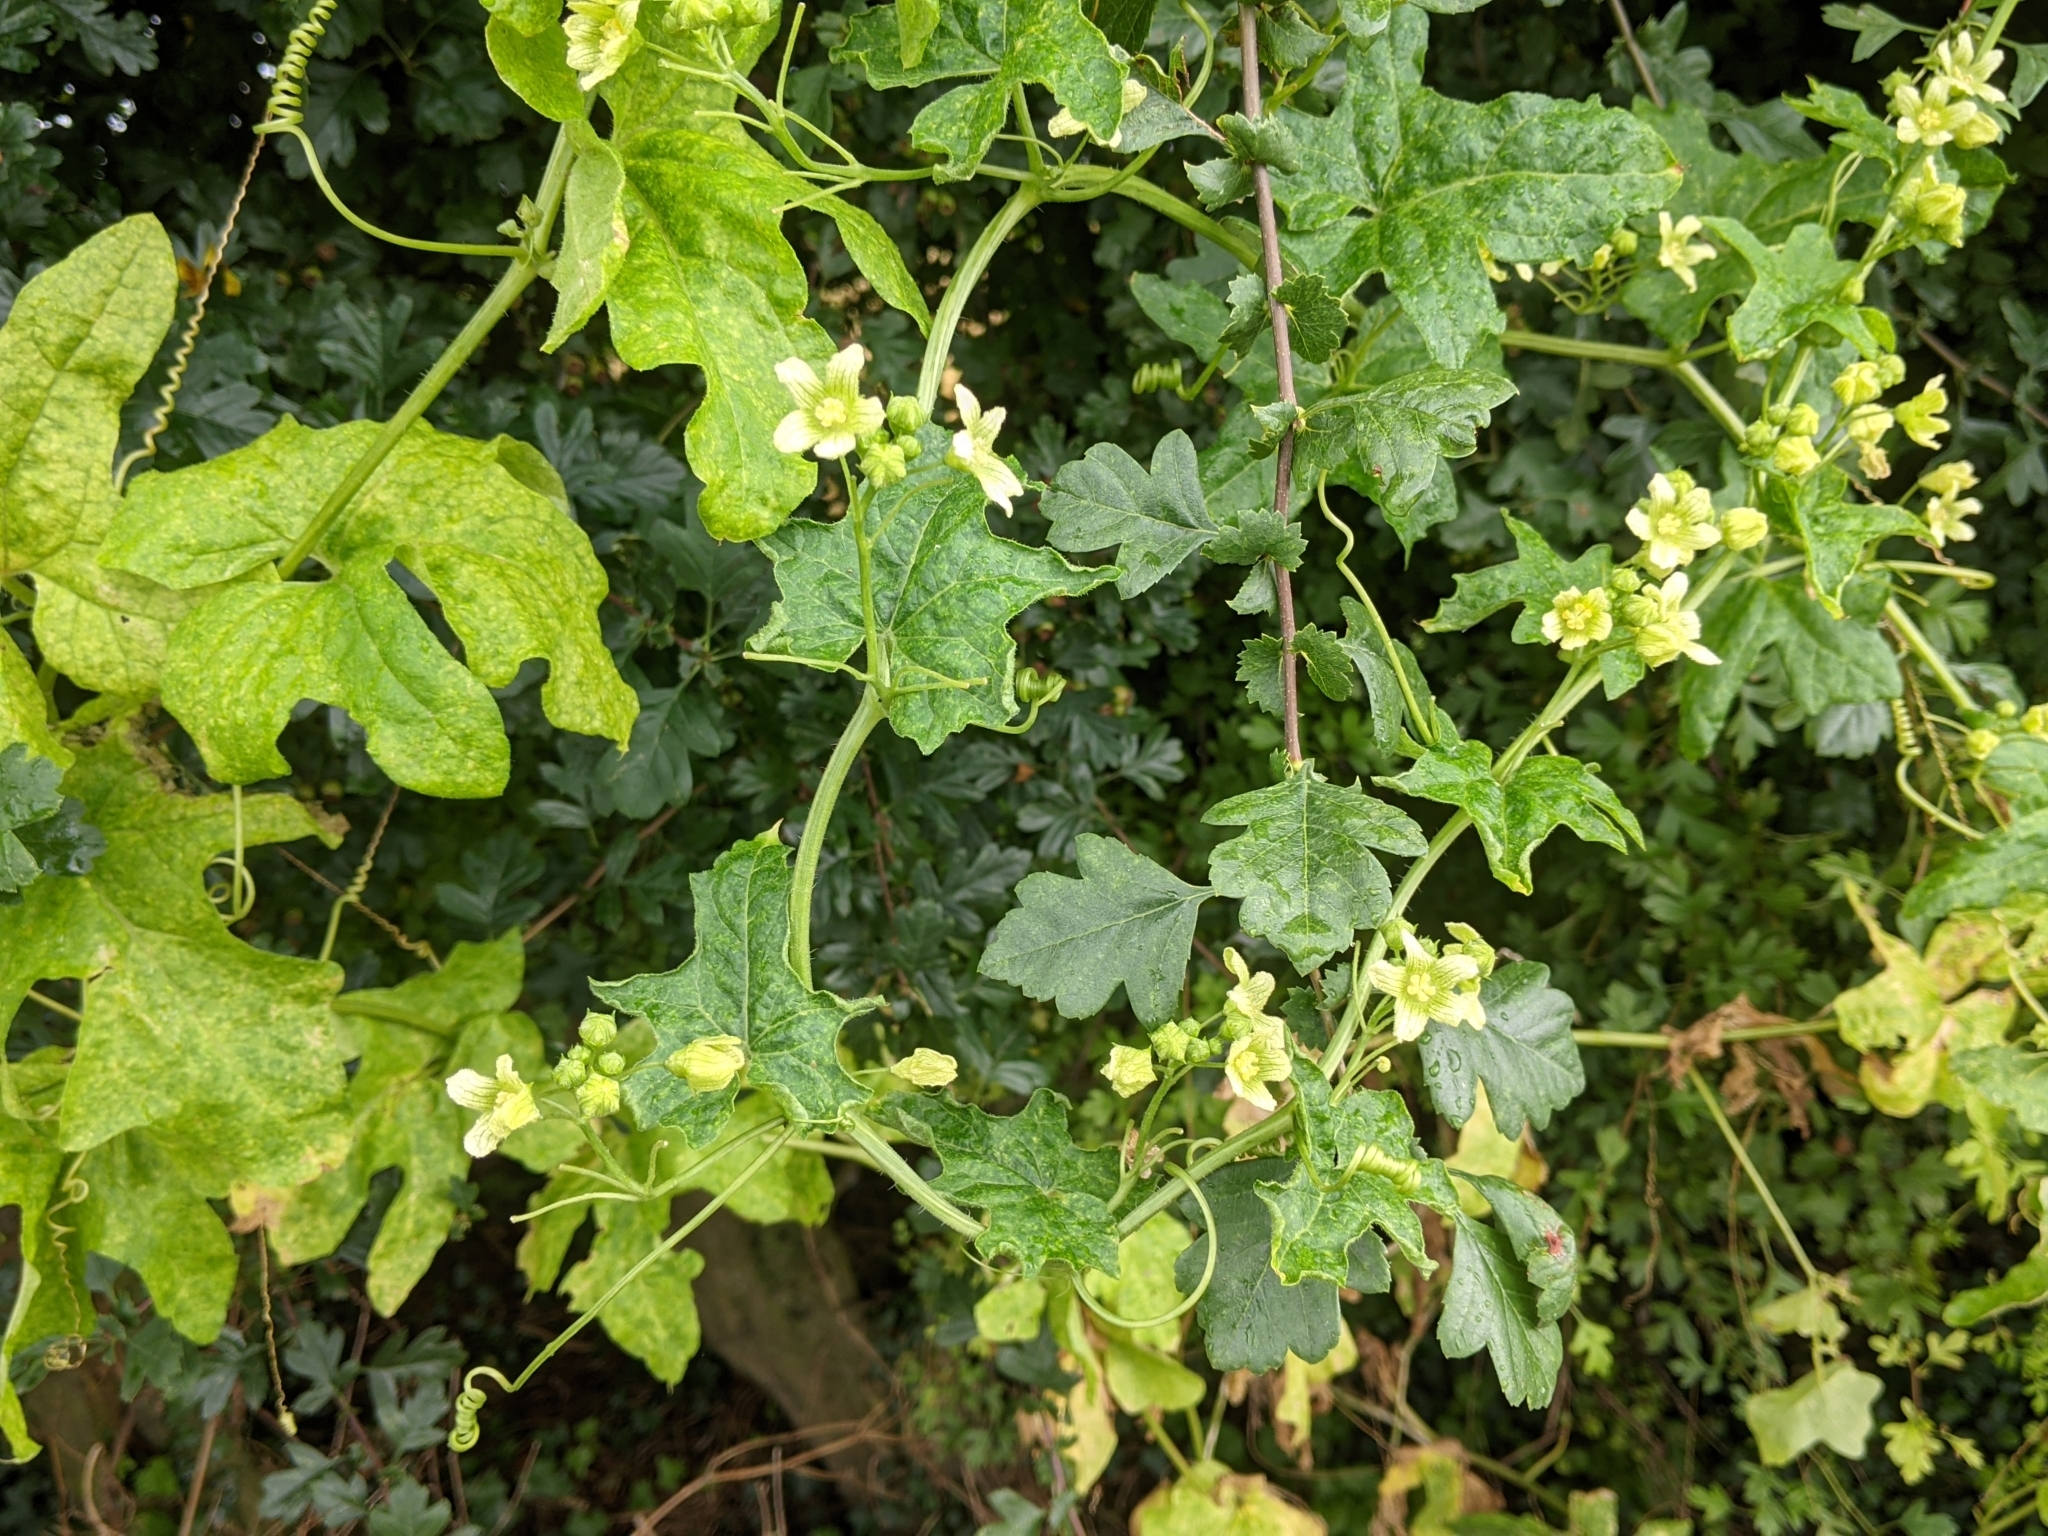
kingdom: Plantae
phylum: Tracheophyta
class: Magnoliopsida
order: Cucurbitales
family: Cucurbitaceae
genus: Bryonia
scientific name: Bryonia cretica
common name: Cretan bryony
